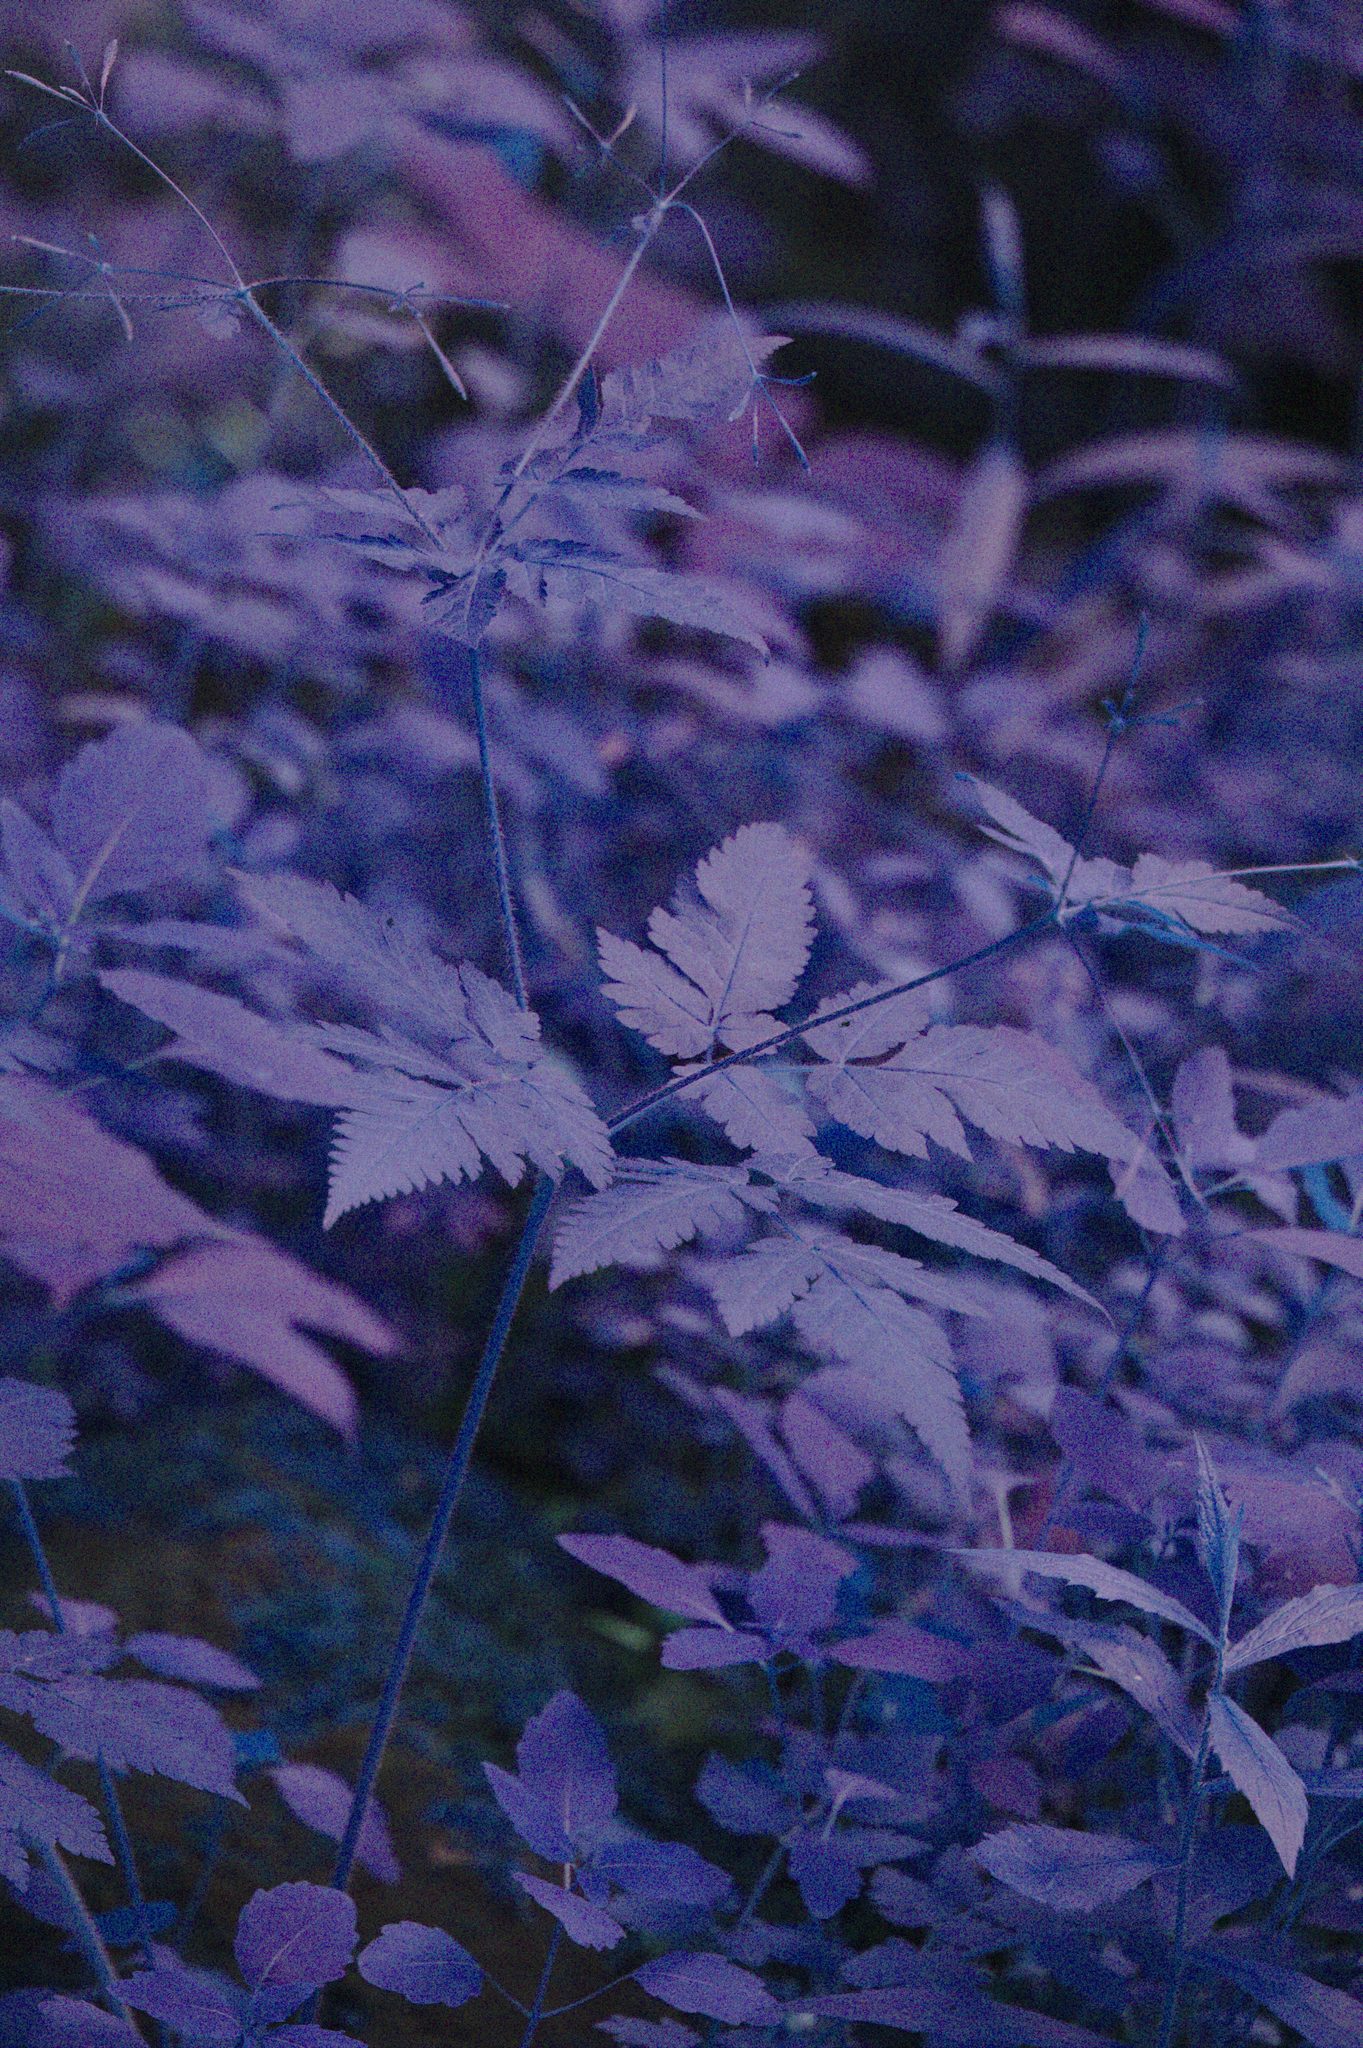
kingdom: Plantae
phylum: Tracheophyta
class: Magnoliopsida
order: Apiales
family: Apiaceae
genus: Osmorhiza
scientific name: Osmorhiza claytonii
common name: Hairy sweet cicely
